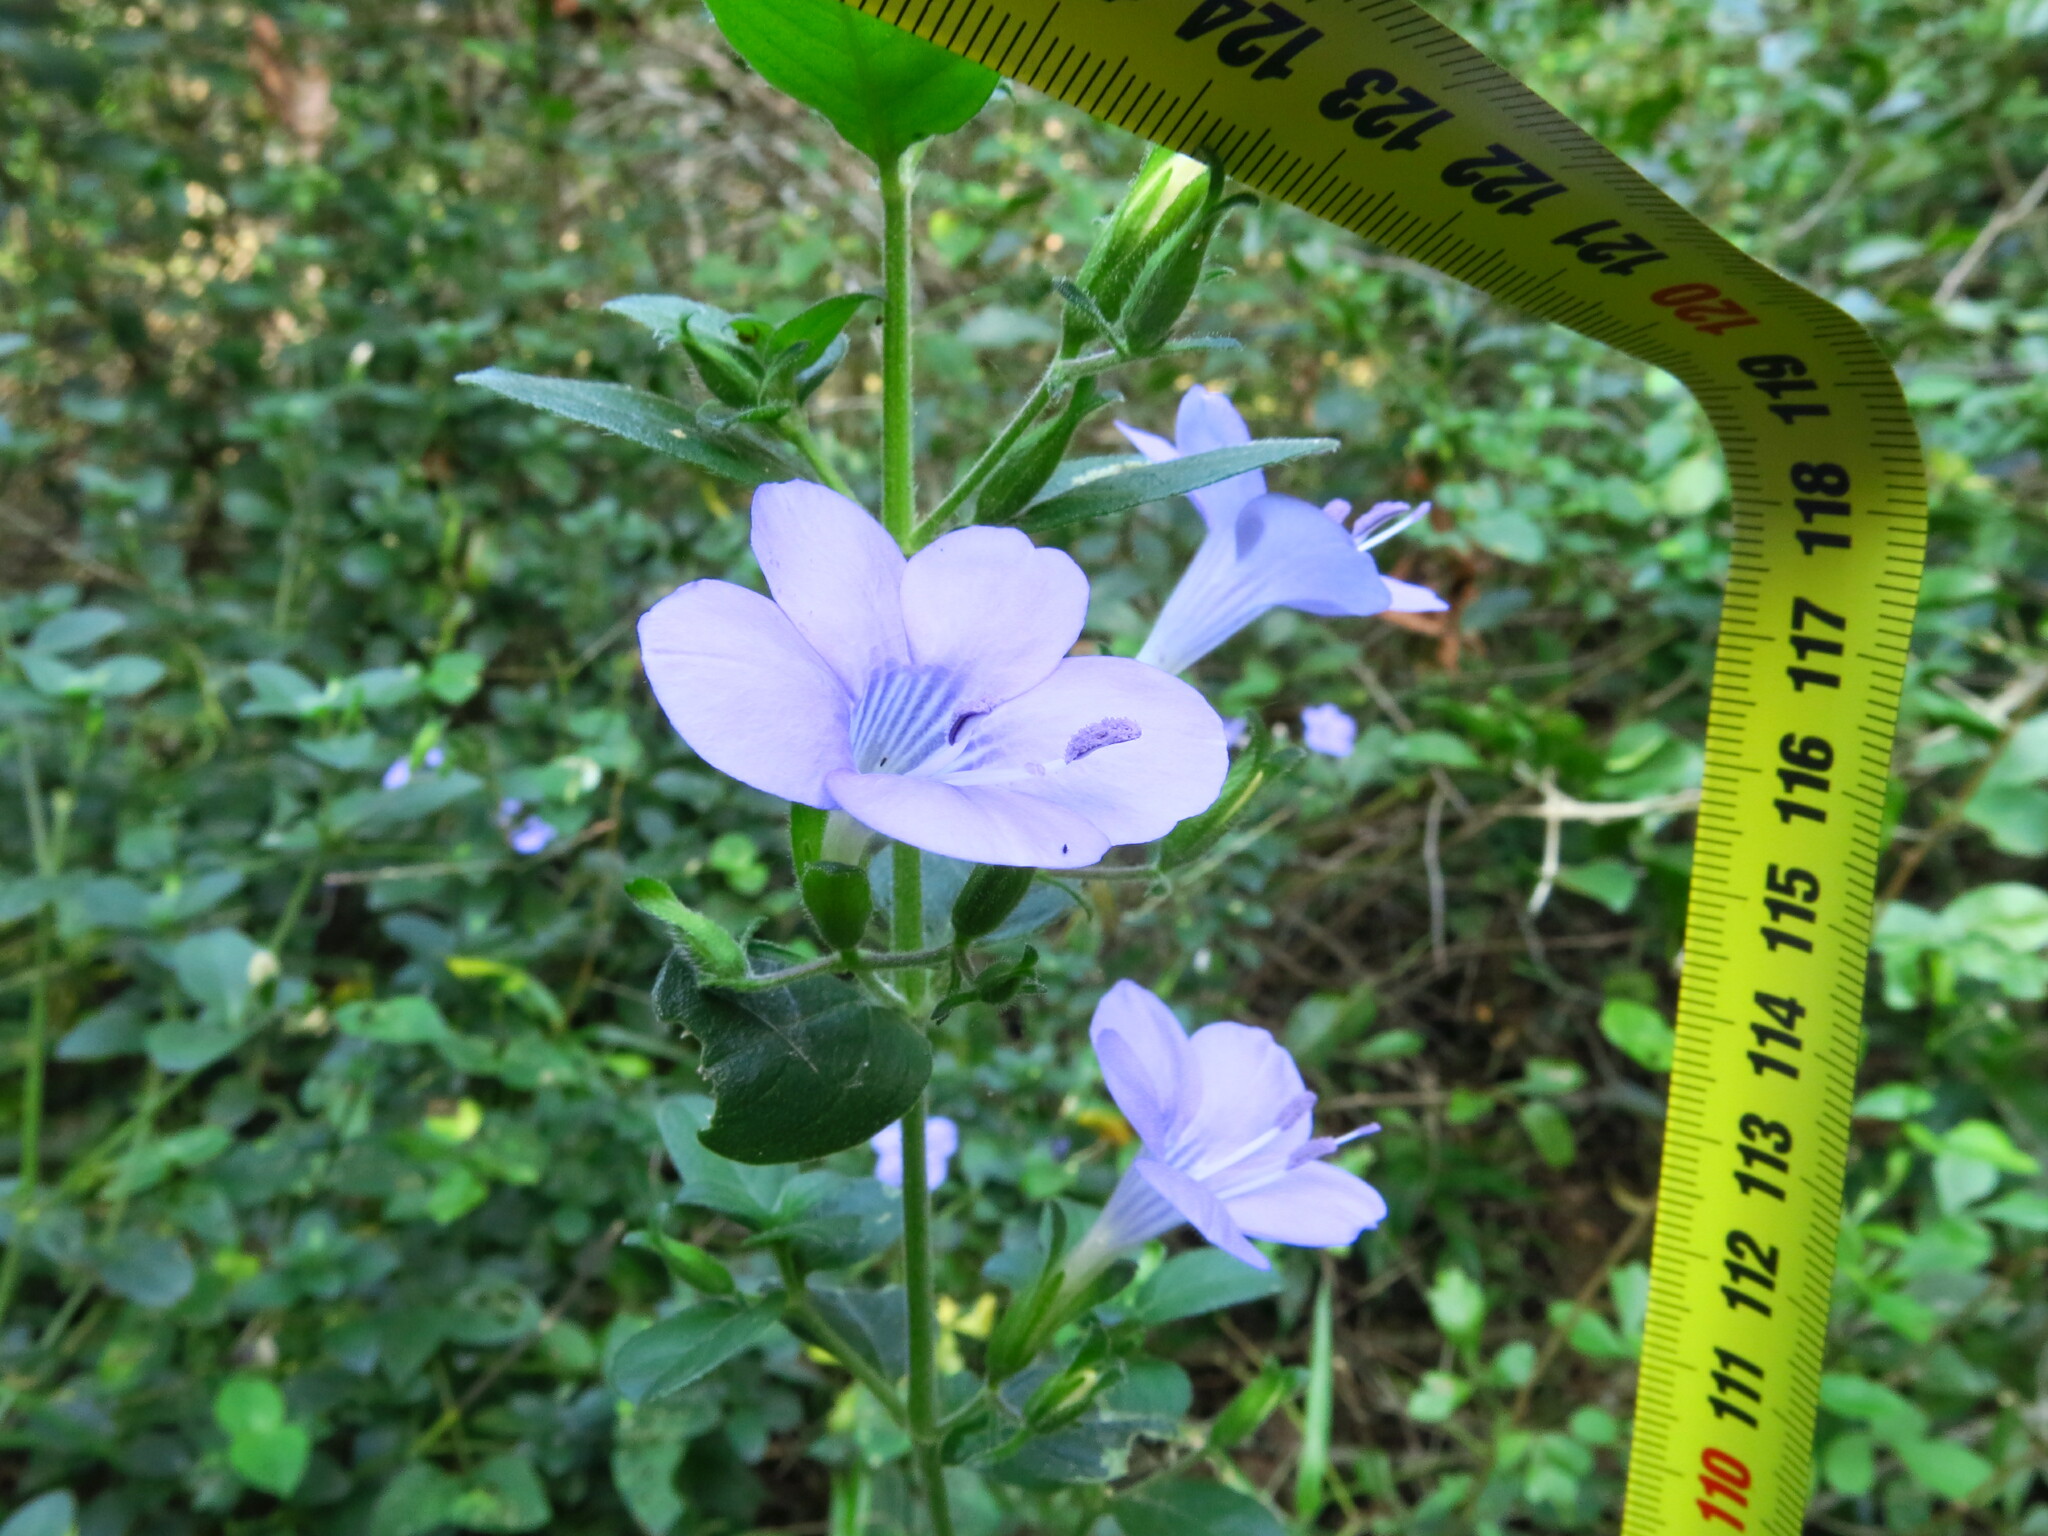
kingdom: Plantae
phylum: Tracheophyta
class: Magnoliopsida
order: Lamiales
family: Acanthaceae
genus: Barleria
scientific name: Barleria obtusa
